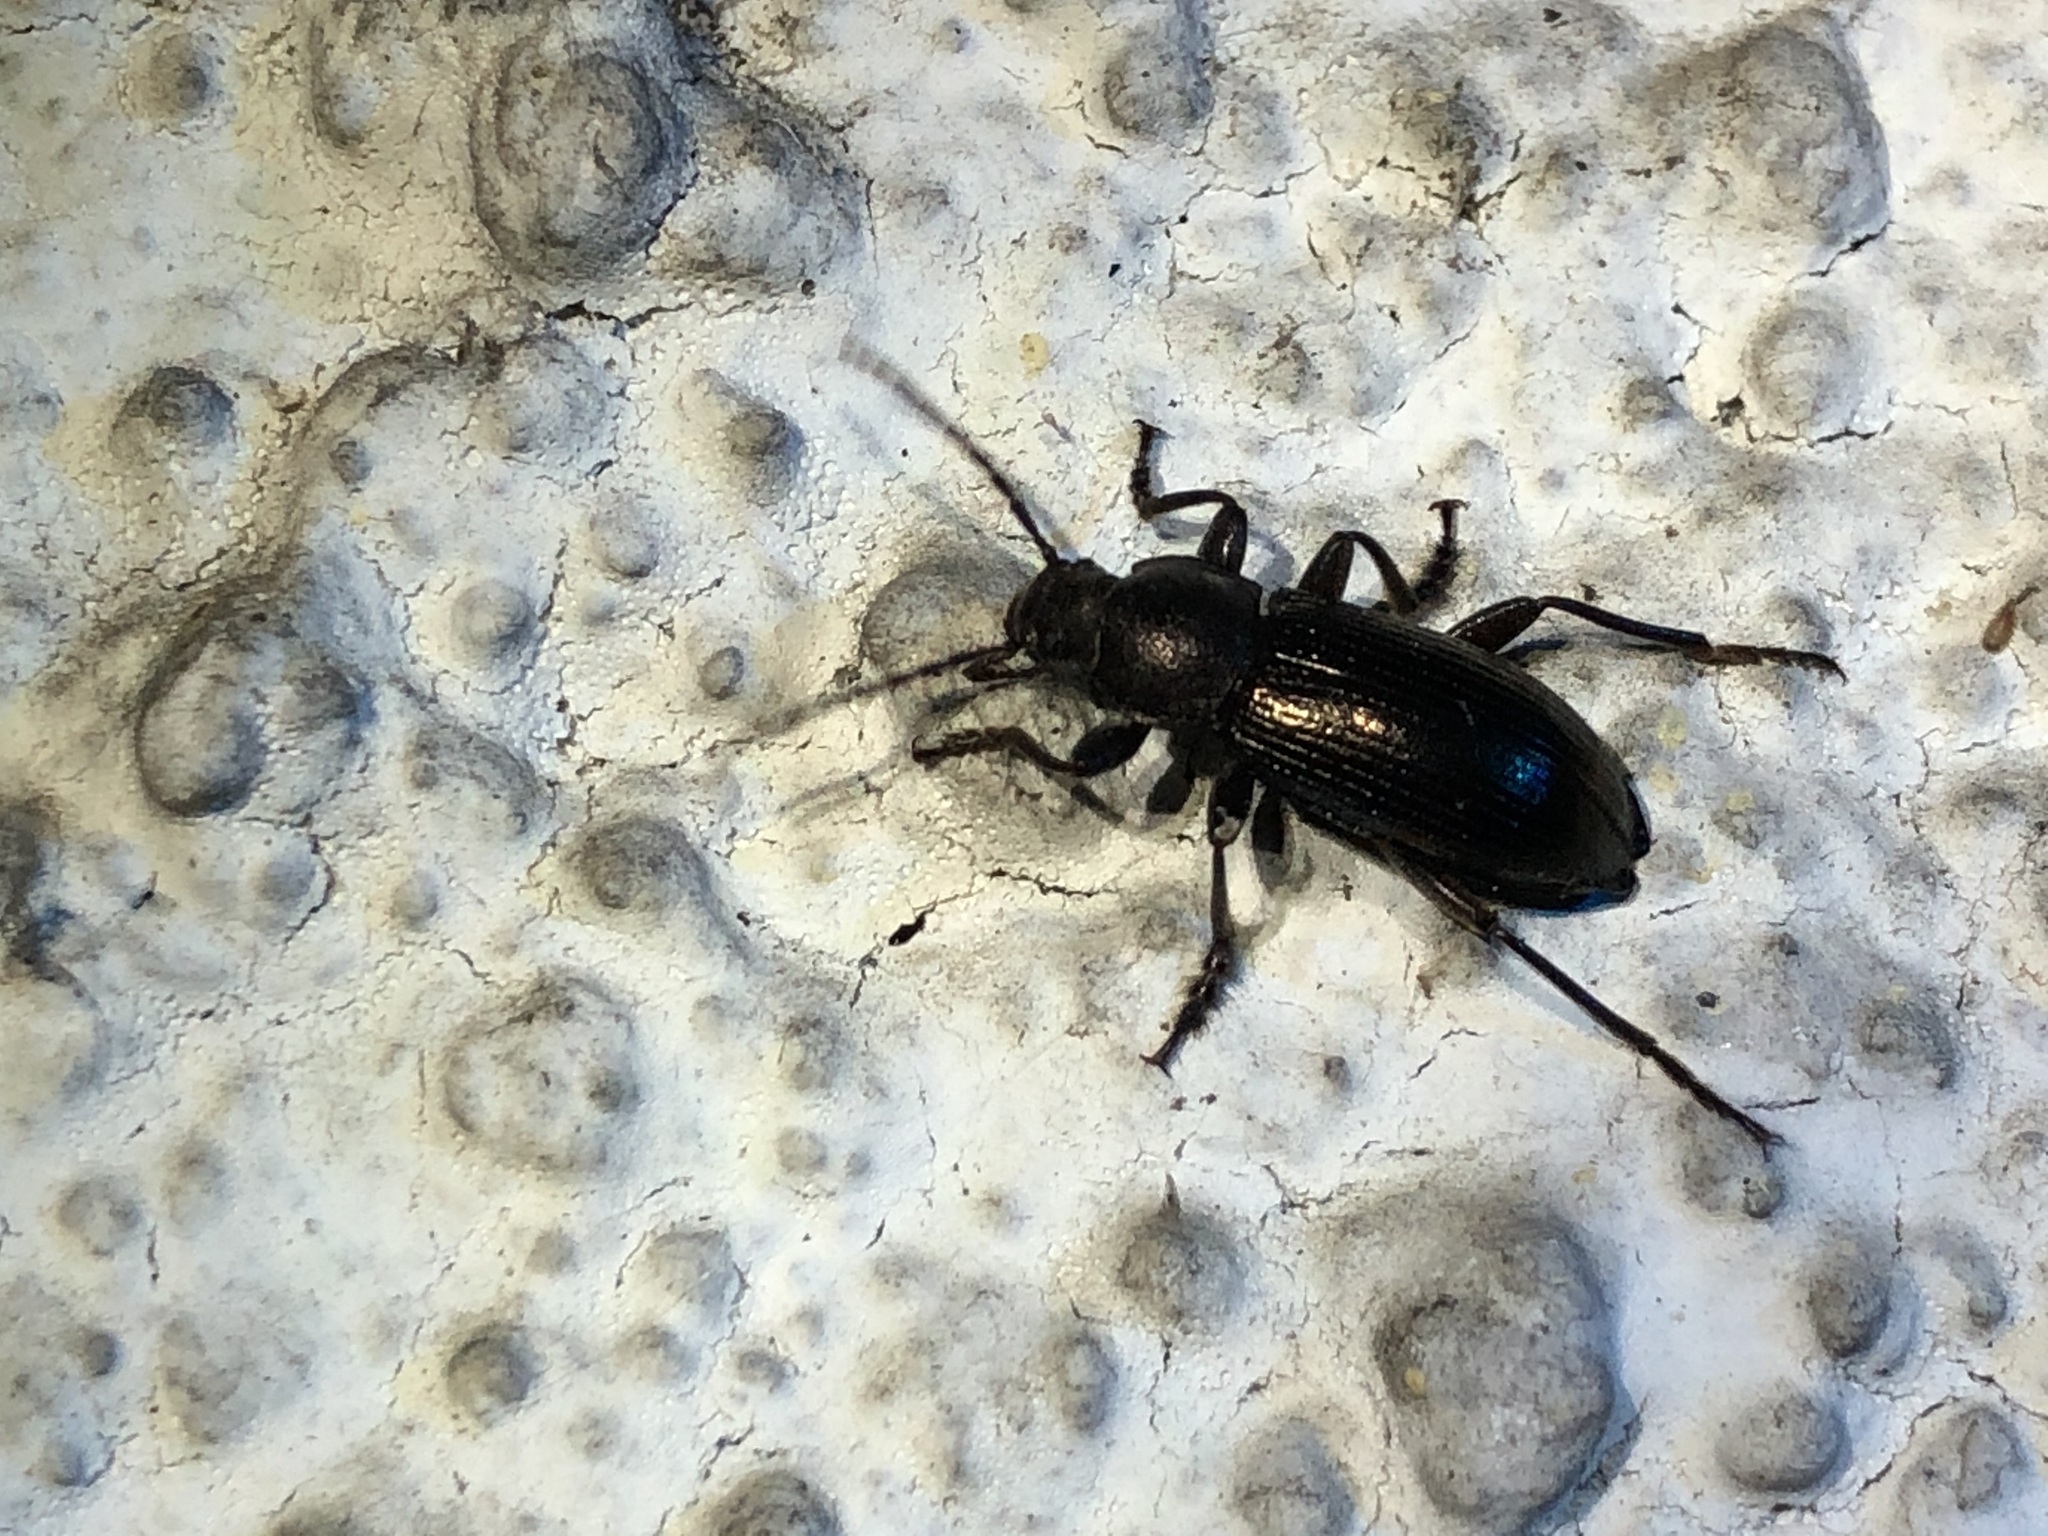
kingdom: Animalia
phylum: Arthropoda
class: Insecta
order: Coleoptera
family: Tenebrionidae
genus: Stenomax
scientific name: Stenomax aeneus
